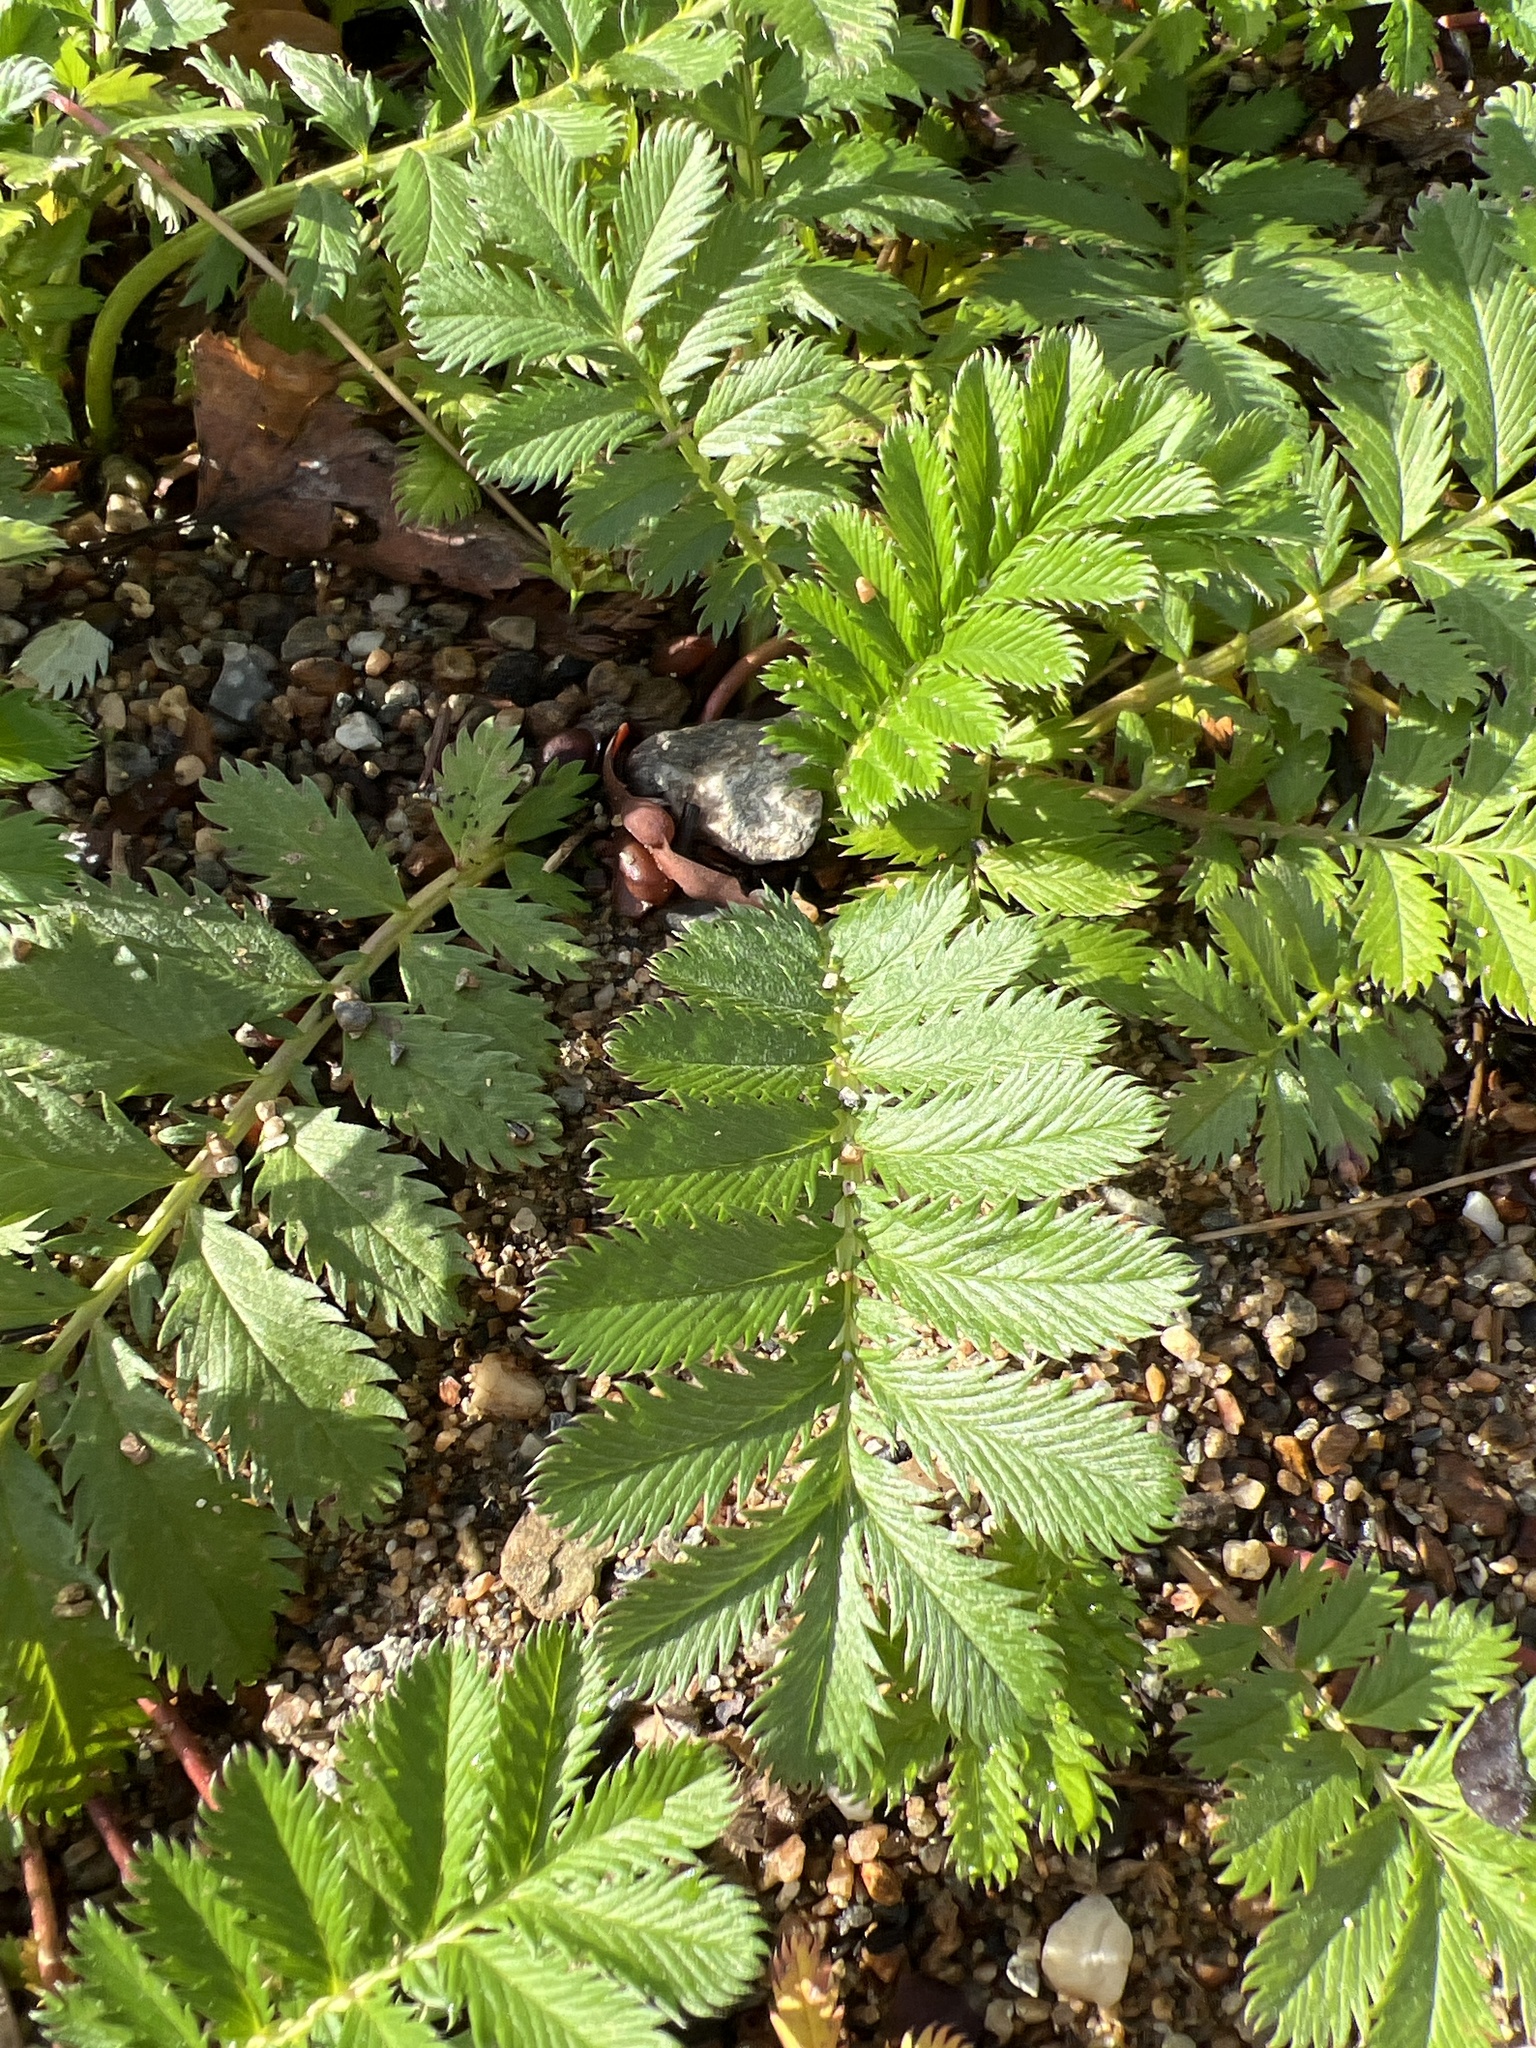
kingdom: Plantae
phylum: Tracheophyta
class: Magnoliopsida
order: Rosales
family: Rosaceae
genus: Argentina
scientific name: Argentina anserina
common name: Common silverweed
